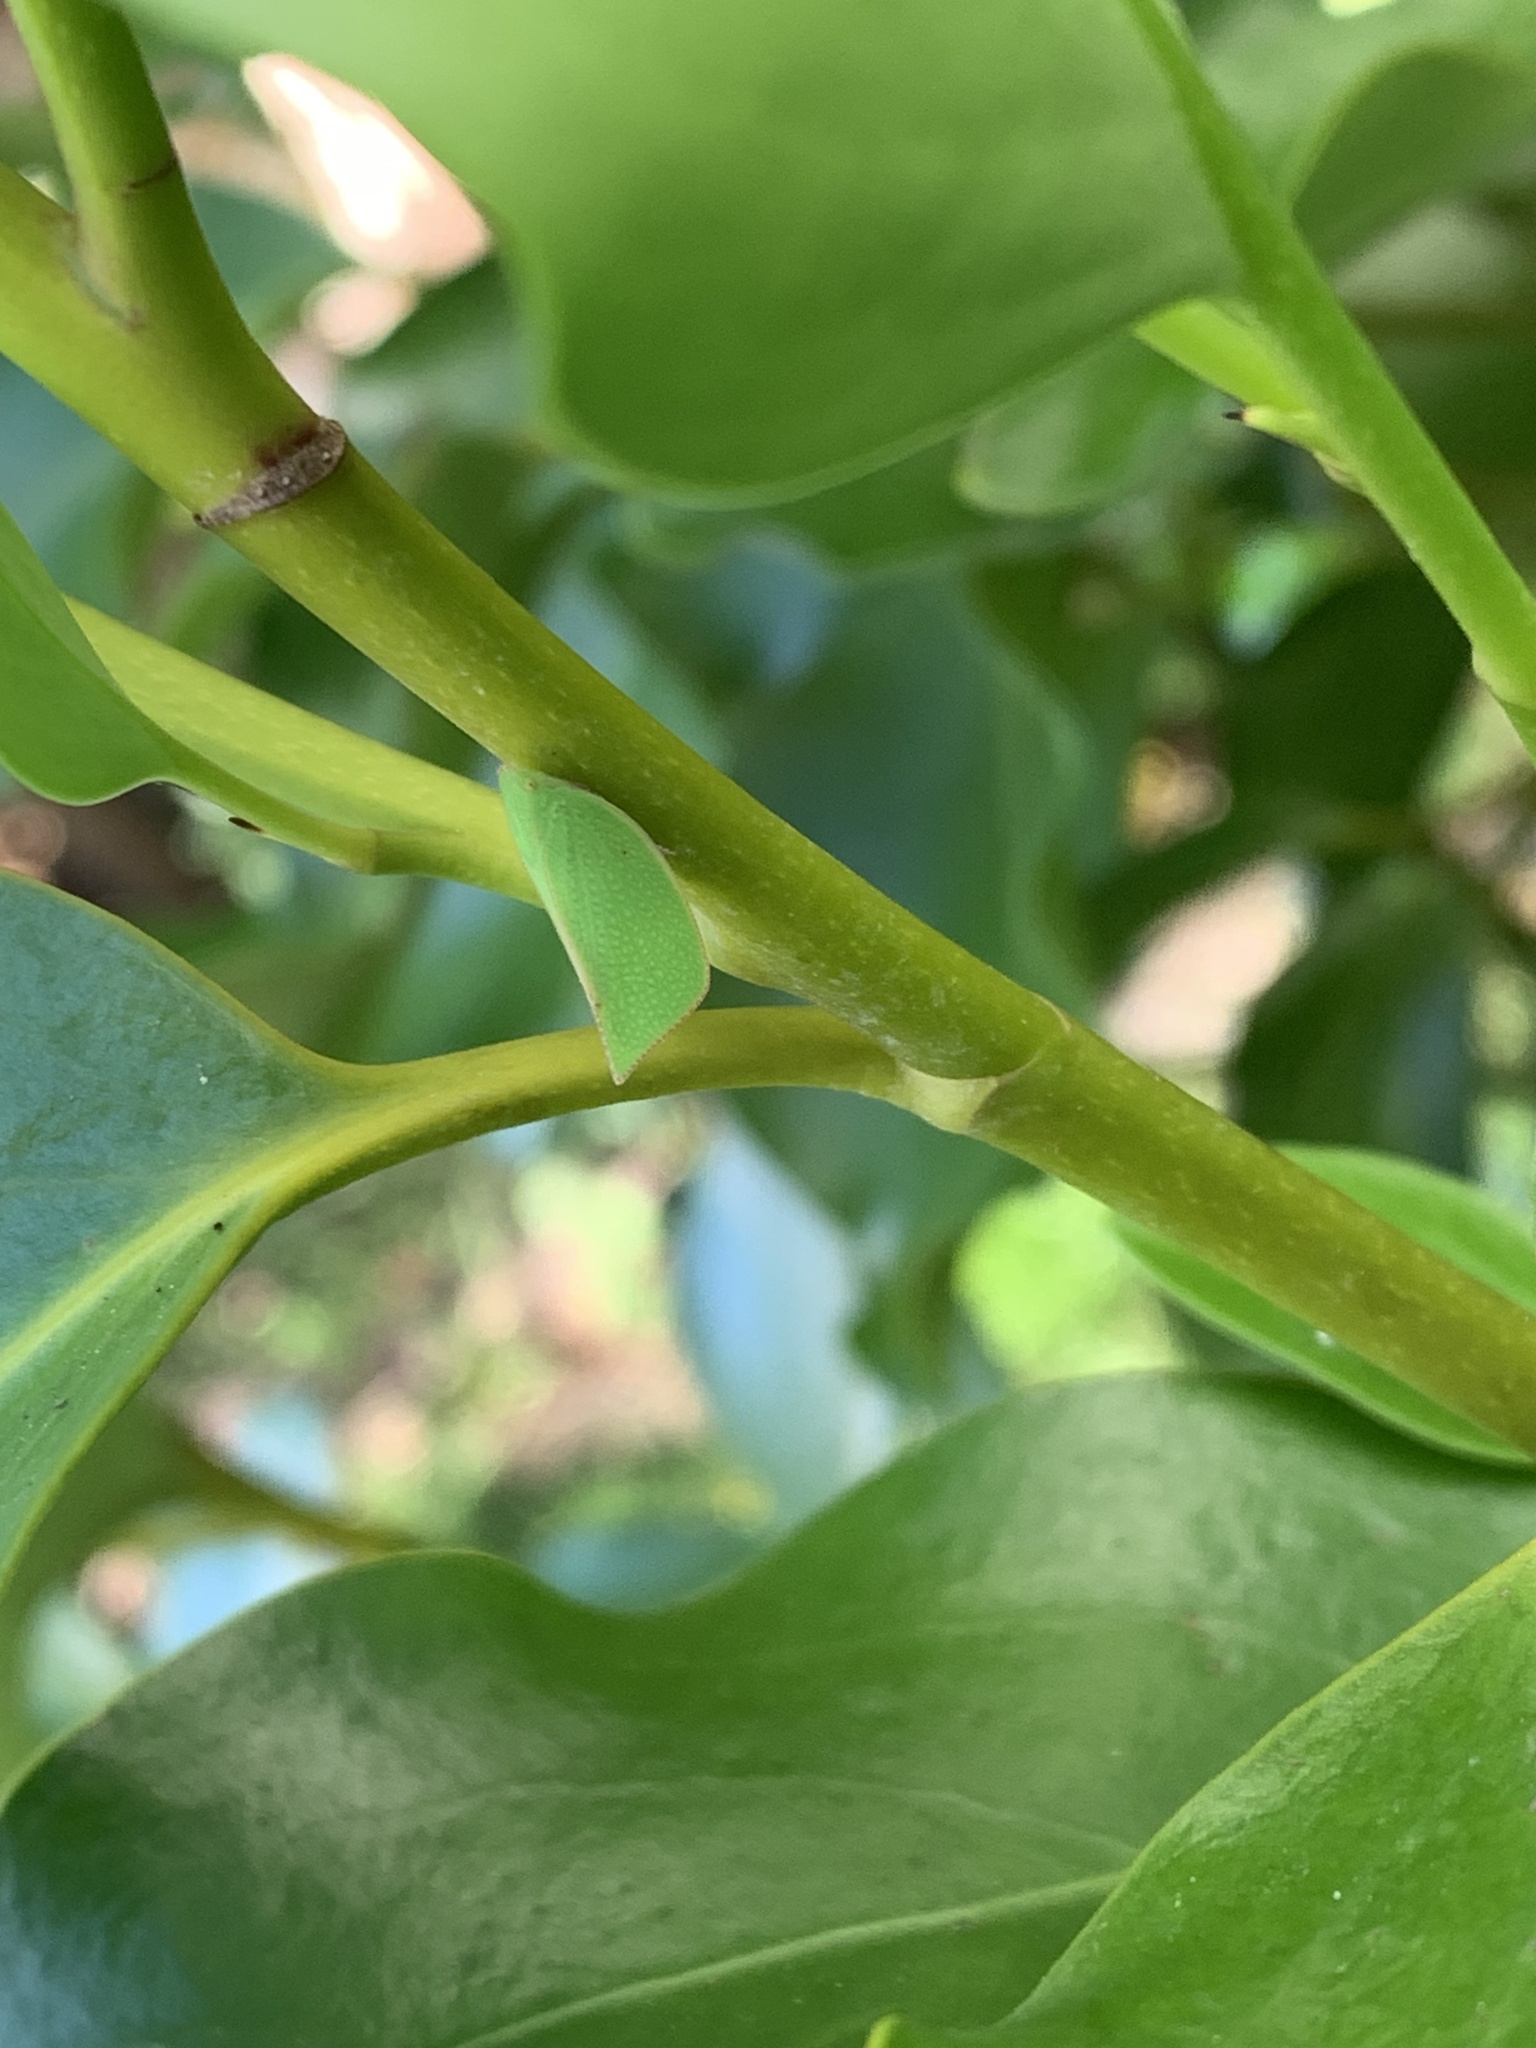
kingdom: Animalia
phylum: Arthropoda
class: Insecta
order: Hemiptera
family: Flatidae
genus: Siphanta
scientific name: Siphanta acuta
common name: Torpedo bug
